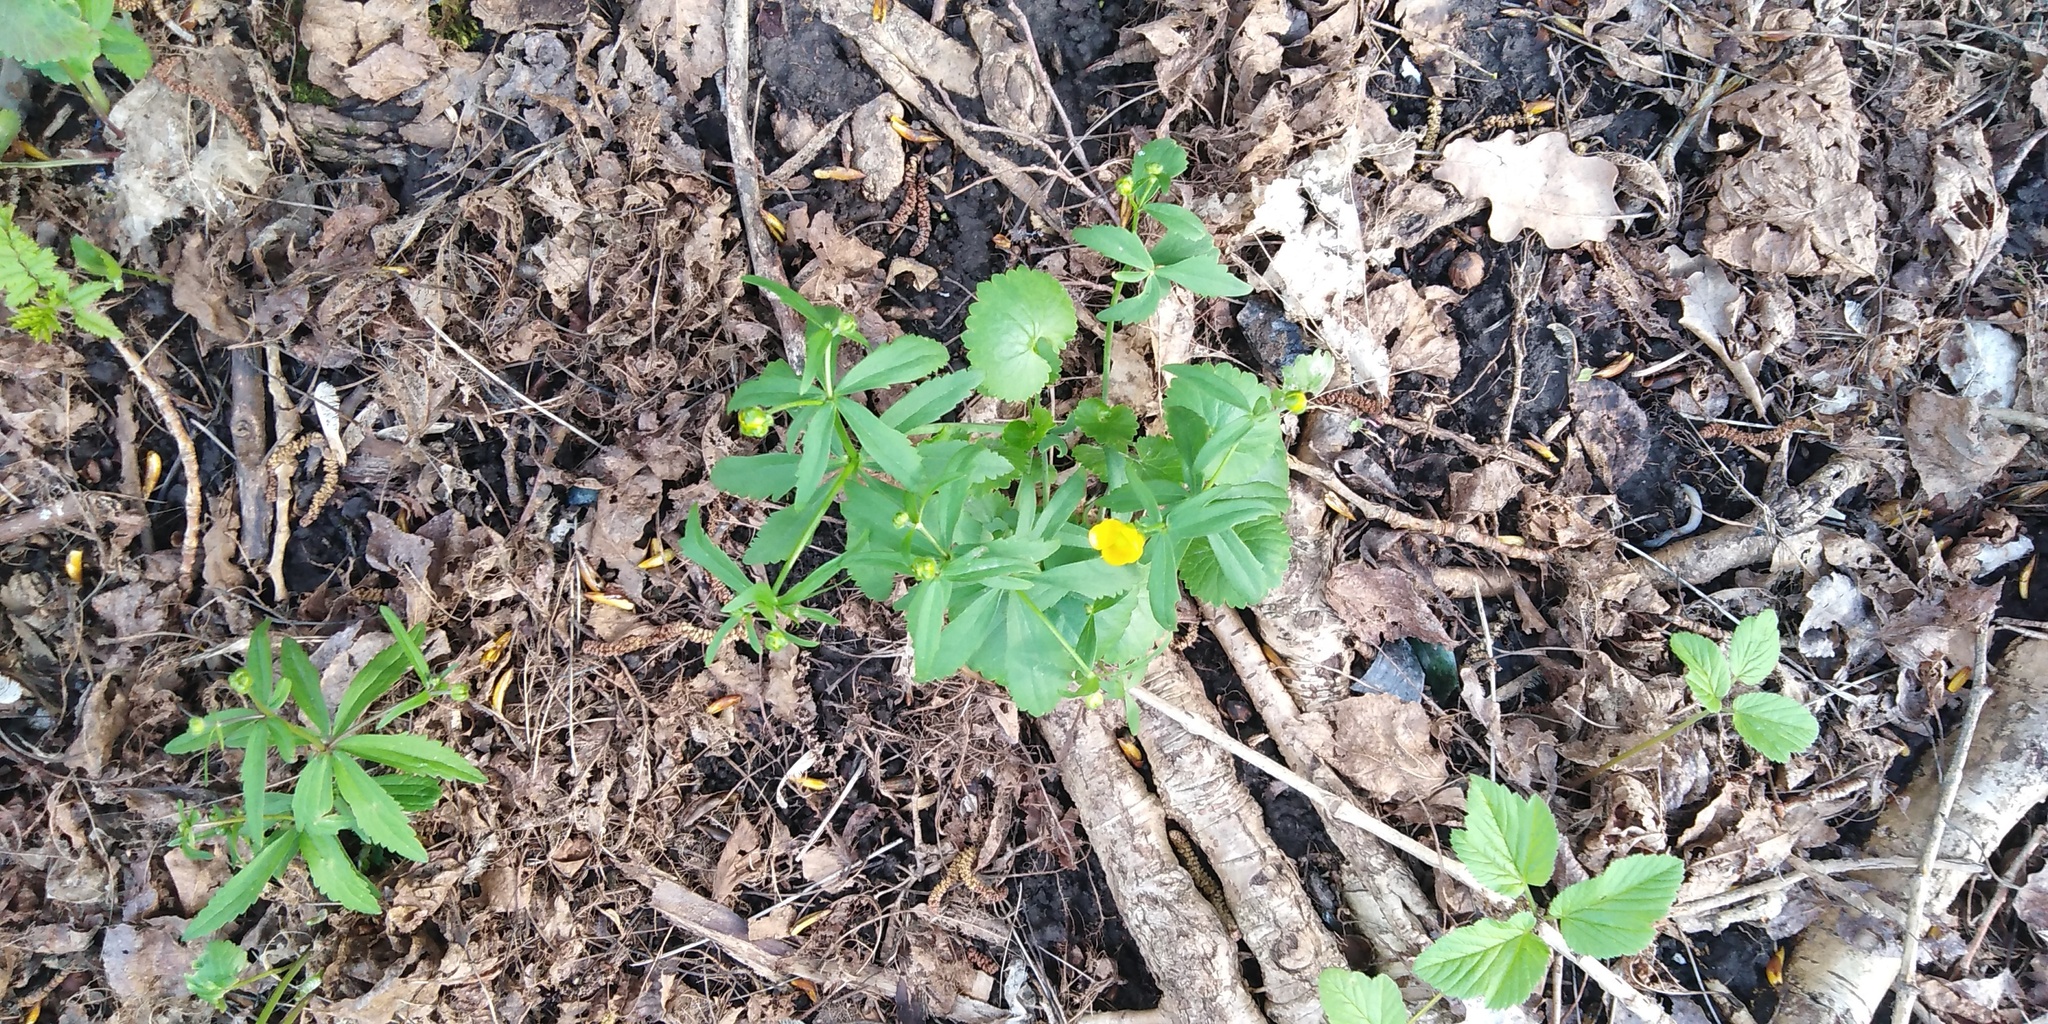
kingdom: Plantae
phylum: Tracheophyta
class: Magnoliopsida
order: Ranunculales
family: Ranunculaceae
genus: Ranunculus
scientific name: Ranunculus cassubicus
